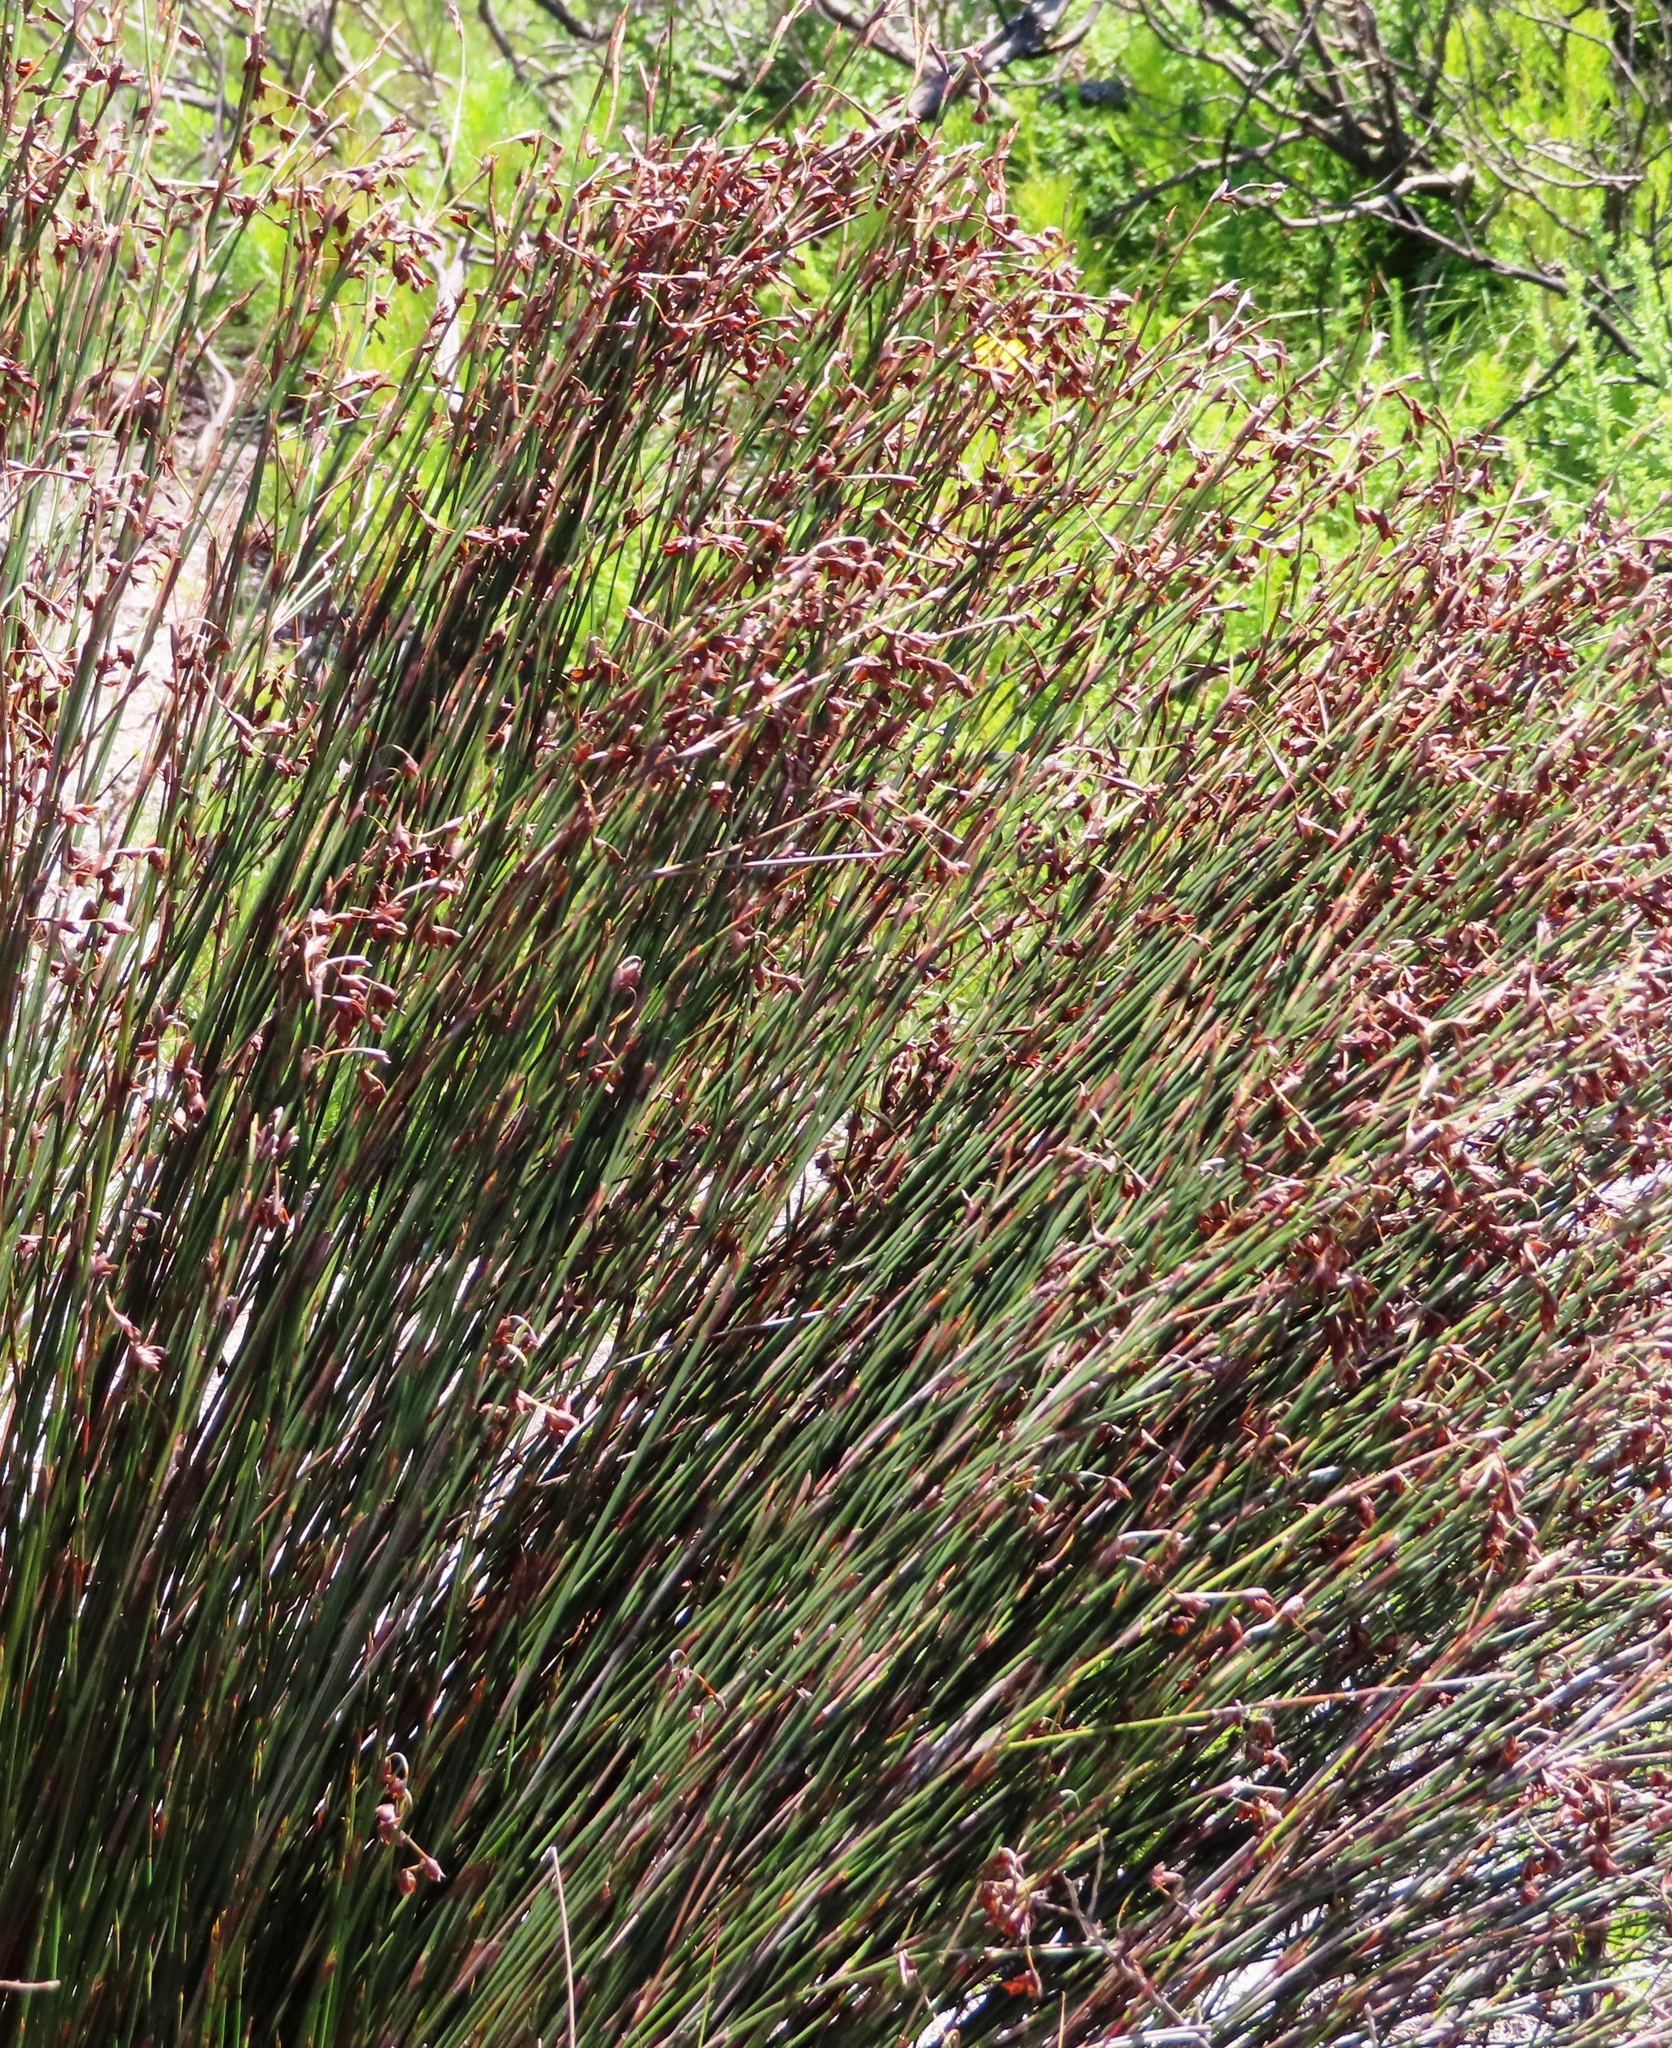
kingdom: Plantae
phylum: Tracheophyta
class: Liliopsida
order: Poales
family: Restionaceae
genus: Restio
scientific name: Restio bifarius
